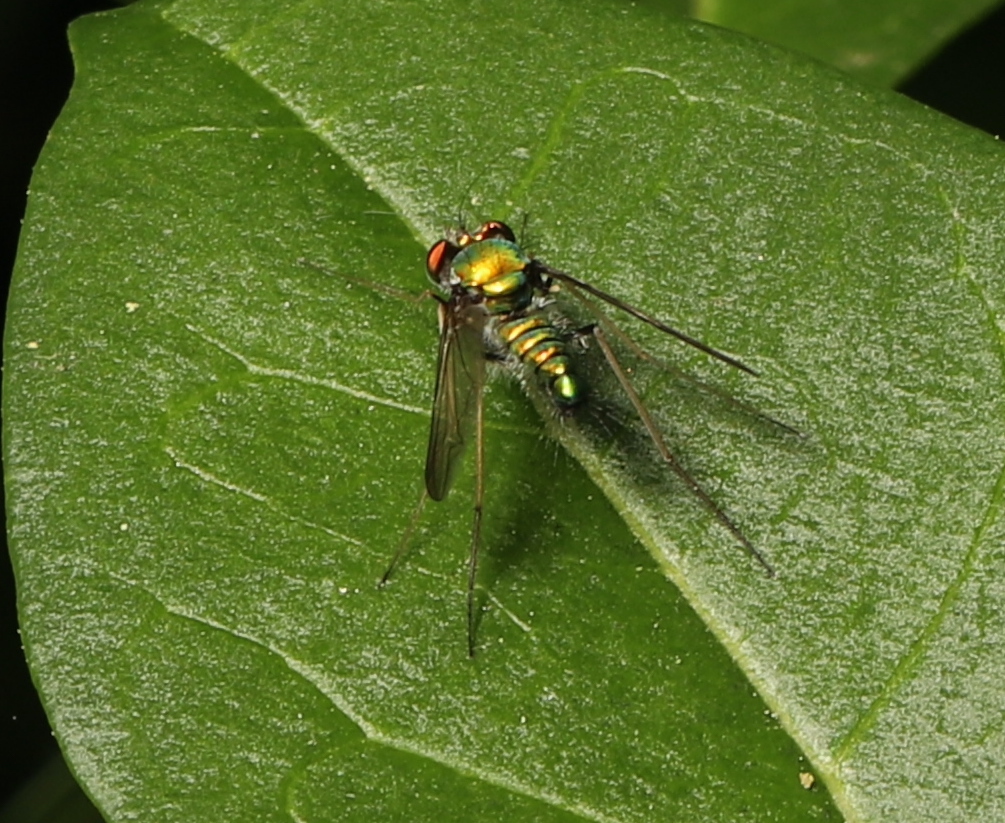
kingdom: Animalia
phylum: Arthropoda
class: Insecta
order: Diptera
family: Dolichopodidae
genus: Condylostylus
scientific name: Condylostylus comatus
